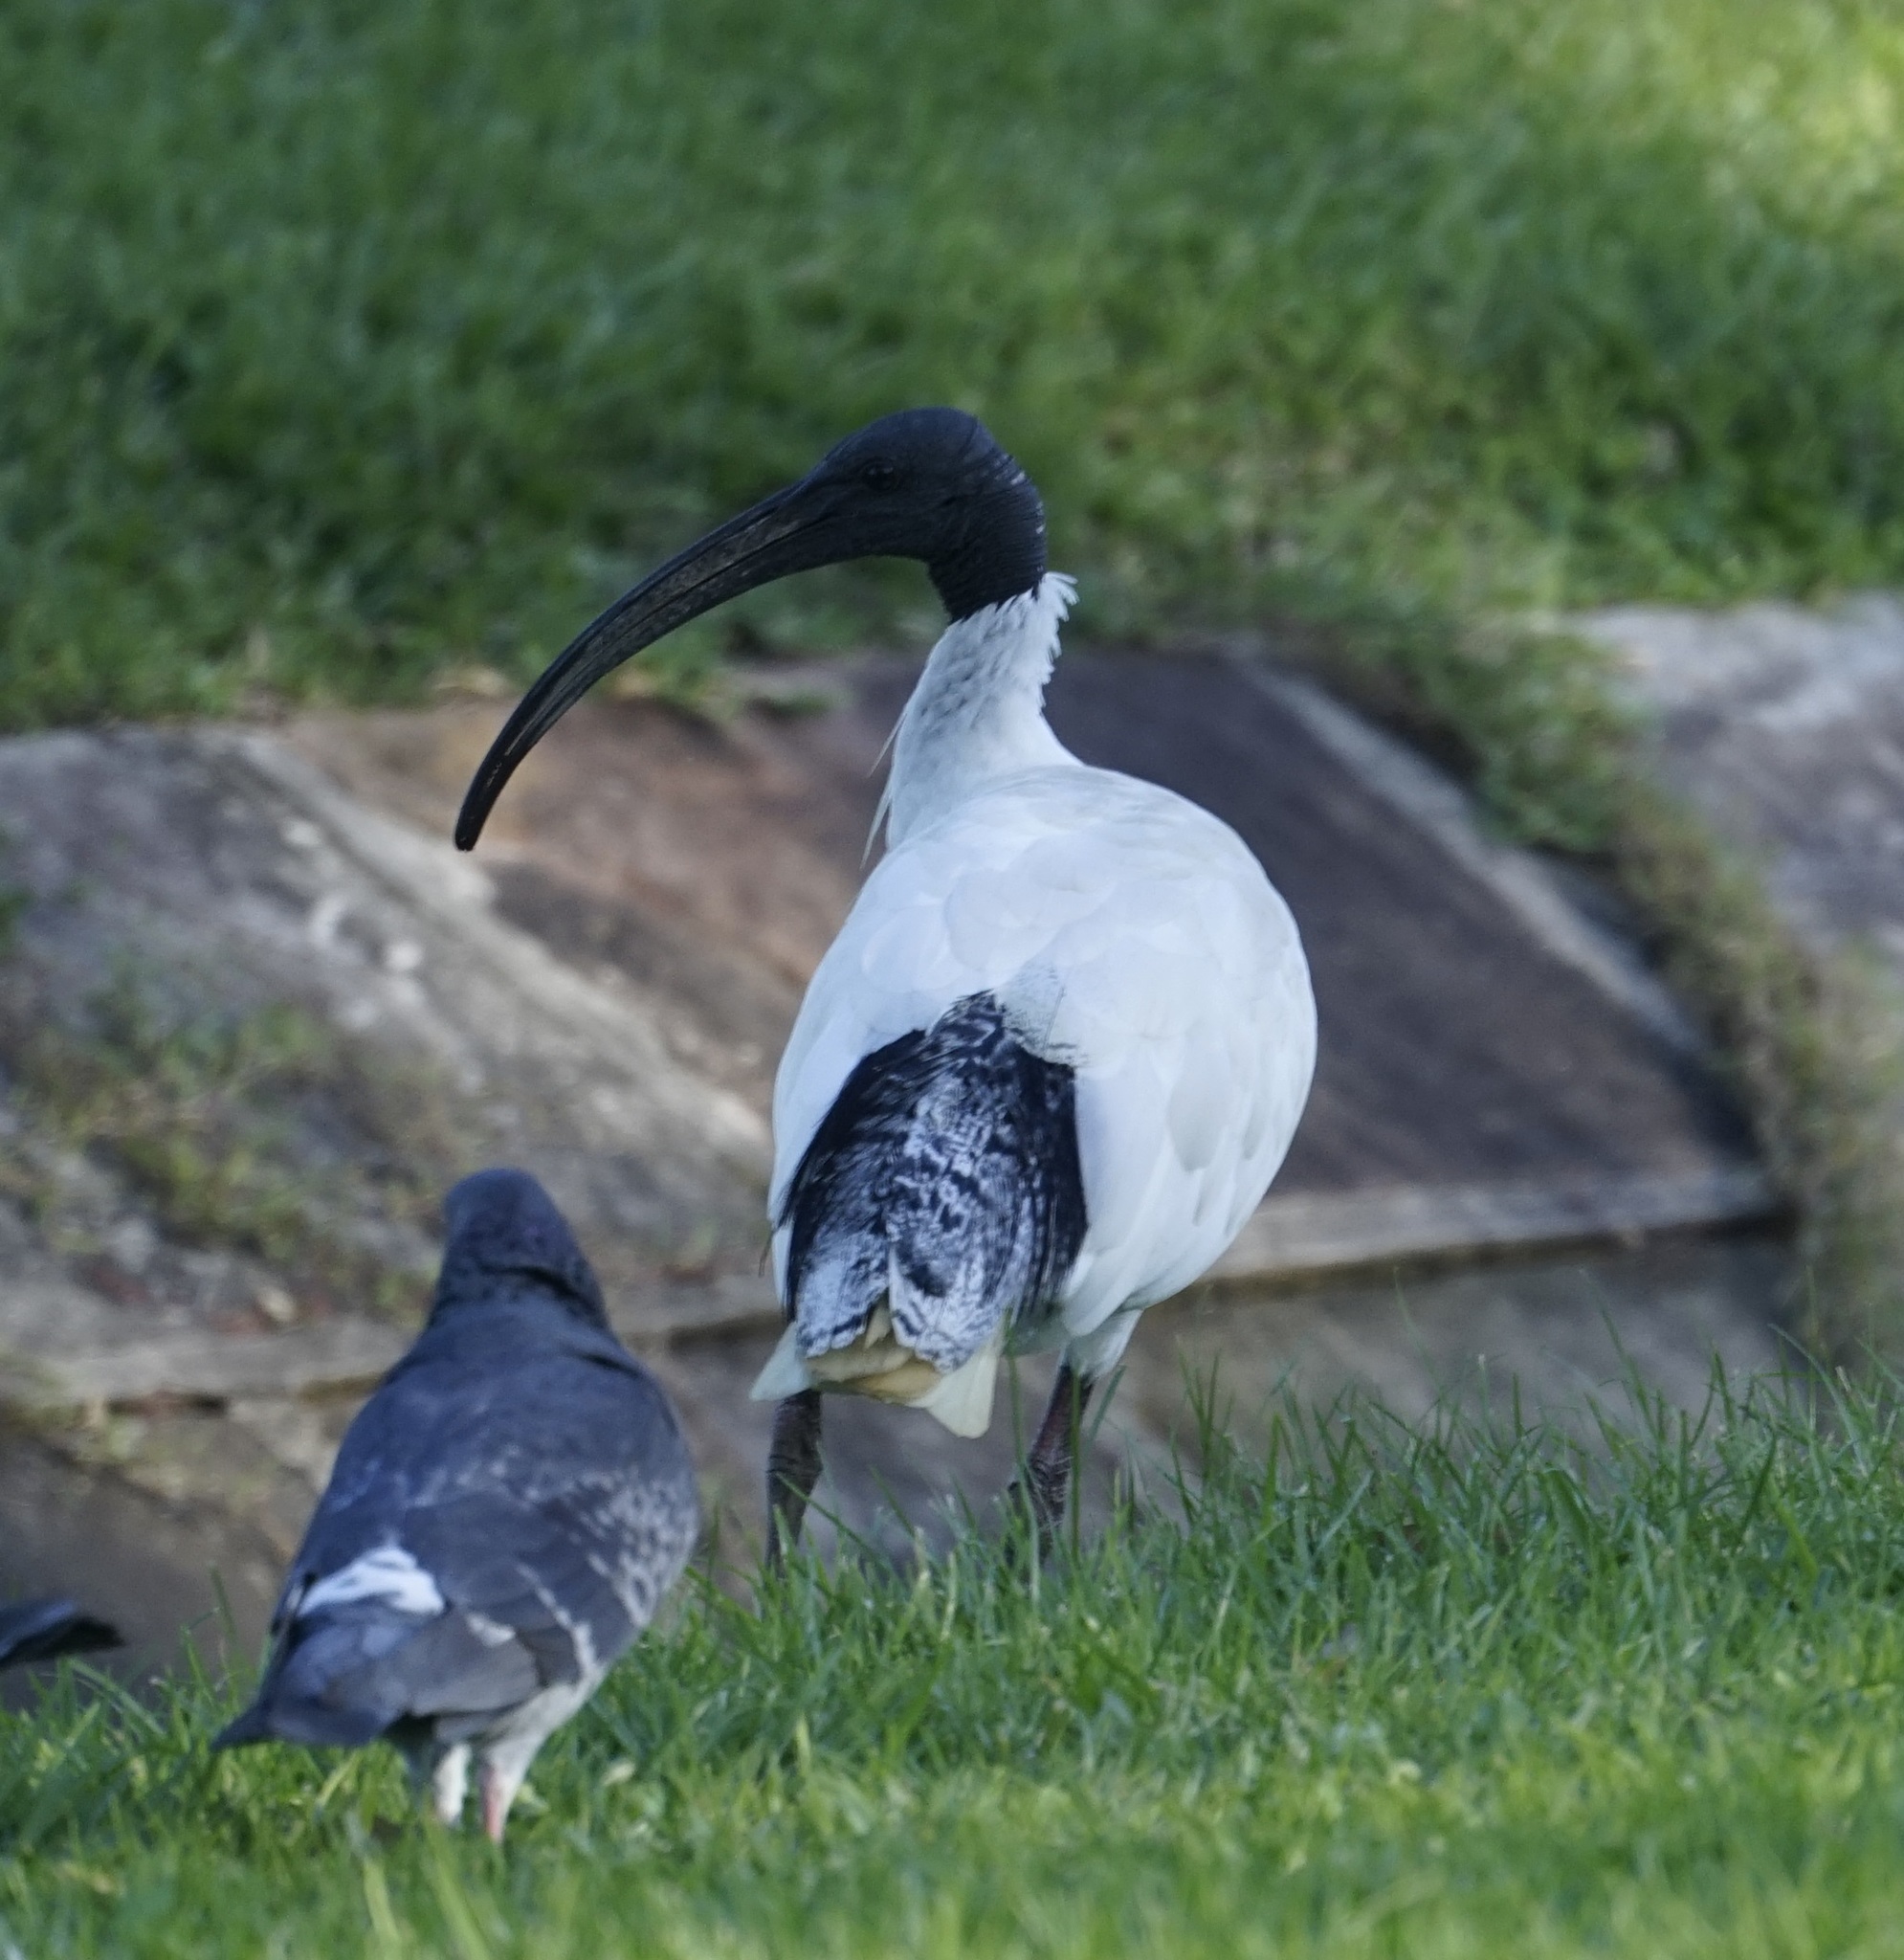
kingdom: Animalia
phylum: Chordata
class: Aves
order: Pelecaniformes
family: Threskiornithidae
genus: Threskiornis
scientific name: Threskiornis molucca
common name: Australian white ibis
